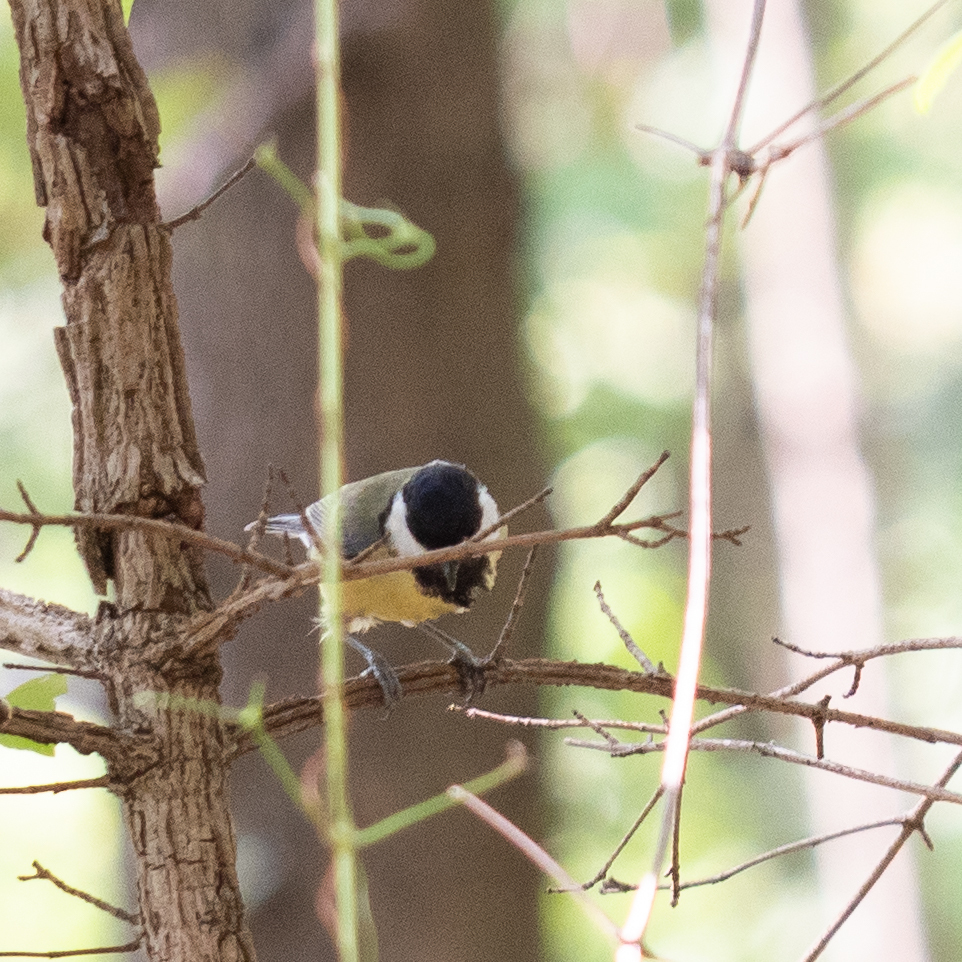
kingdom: Animalia
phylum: Chordata
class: Aves
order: Passeriformes
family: Paridae
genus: Parus
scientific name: Parus major
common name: Great tit
